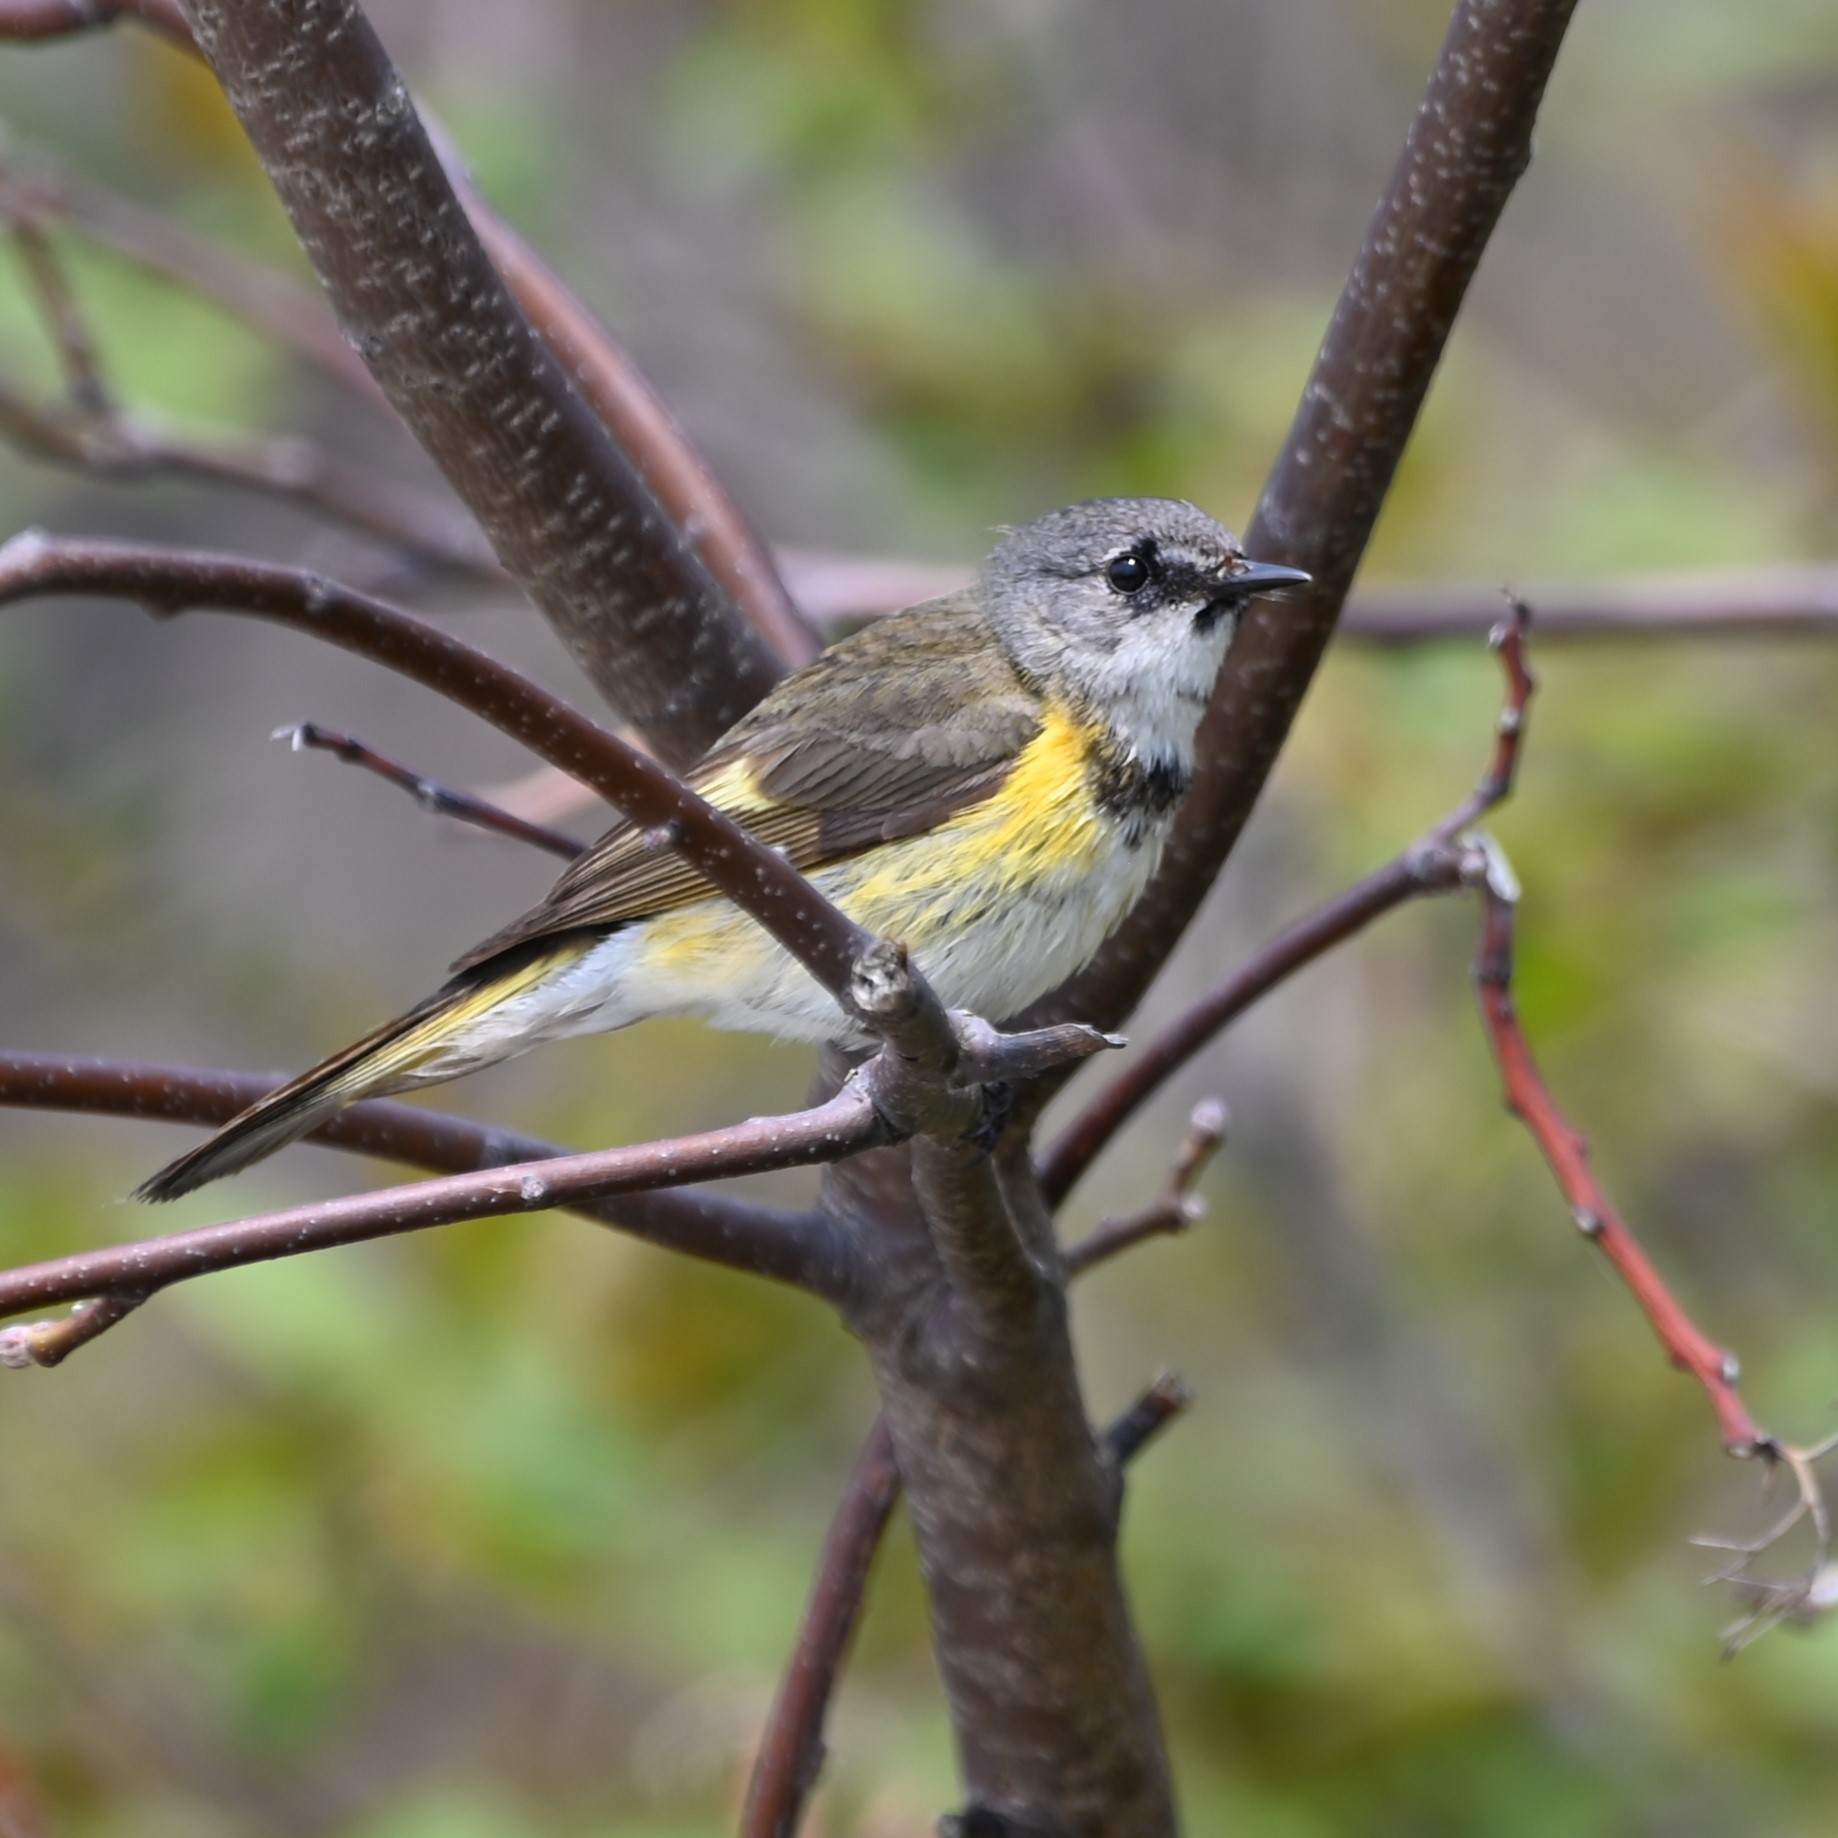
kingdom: Animalia
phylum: Chordata
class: Aves
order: Passeriformes
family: Parulidae
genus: Setophaga
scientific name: Setophaga ruticilla
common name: American redstart
